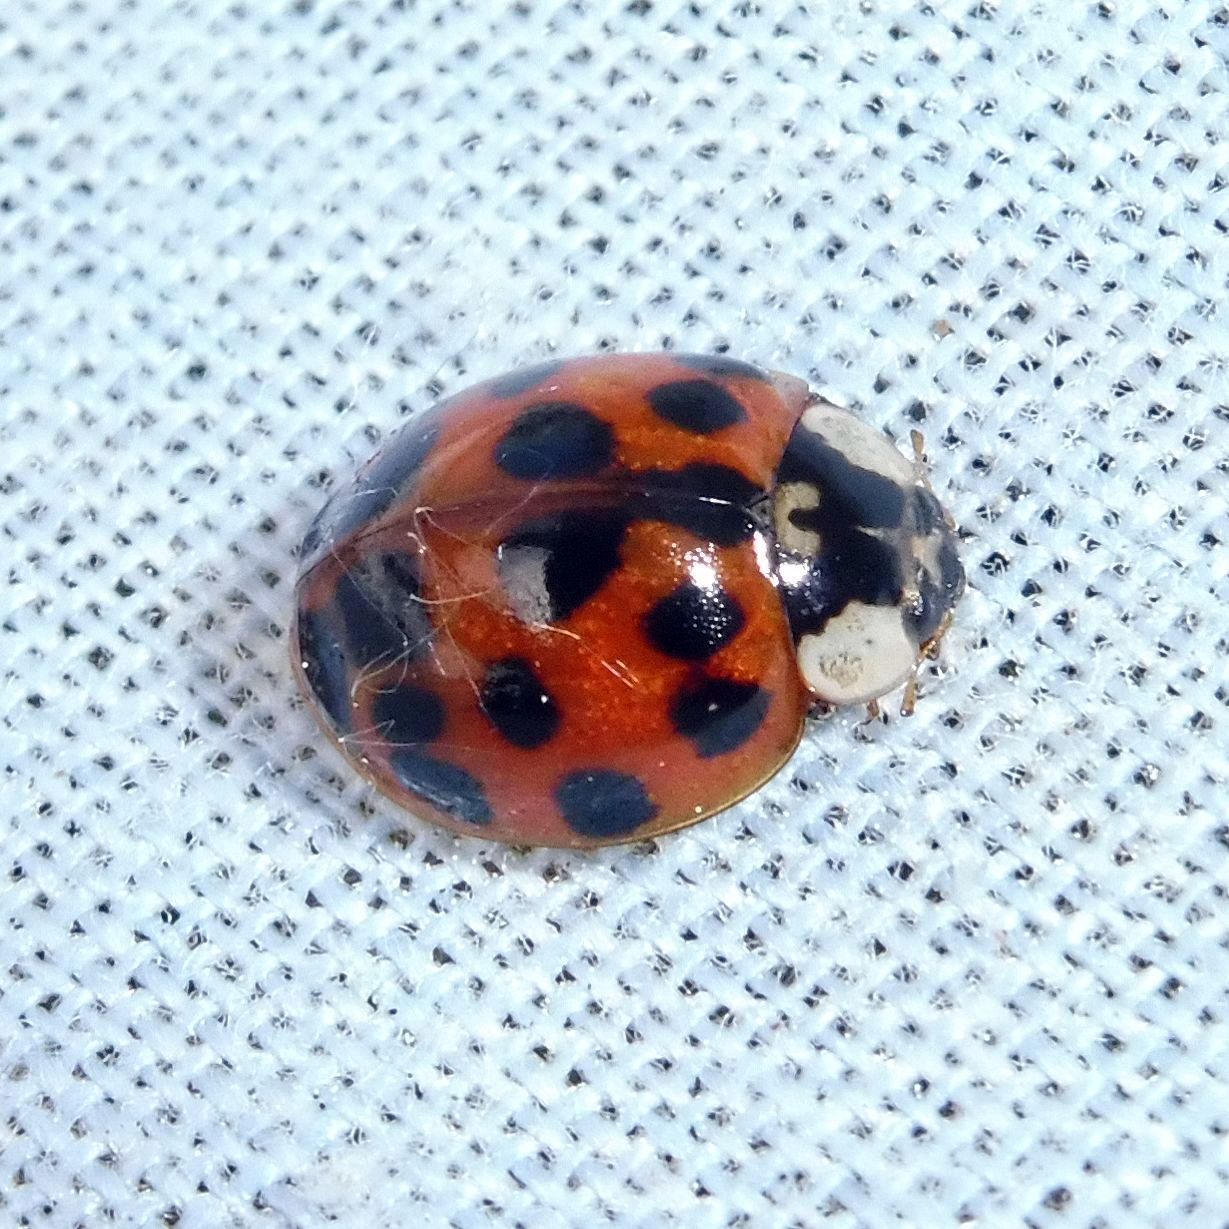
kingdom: Animalia
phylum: Arthropoda
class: Insecta
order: Coleoptera
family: Coccinellidae
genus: Harmonia
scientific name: Harmonia axyridis
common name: Harlequin ladybird
